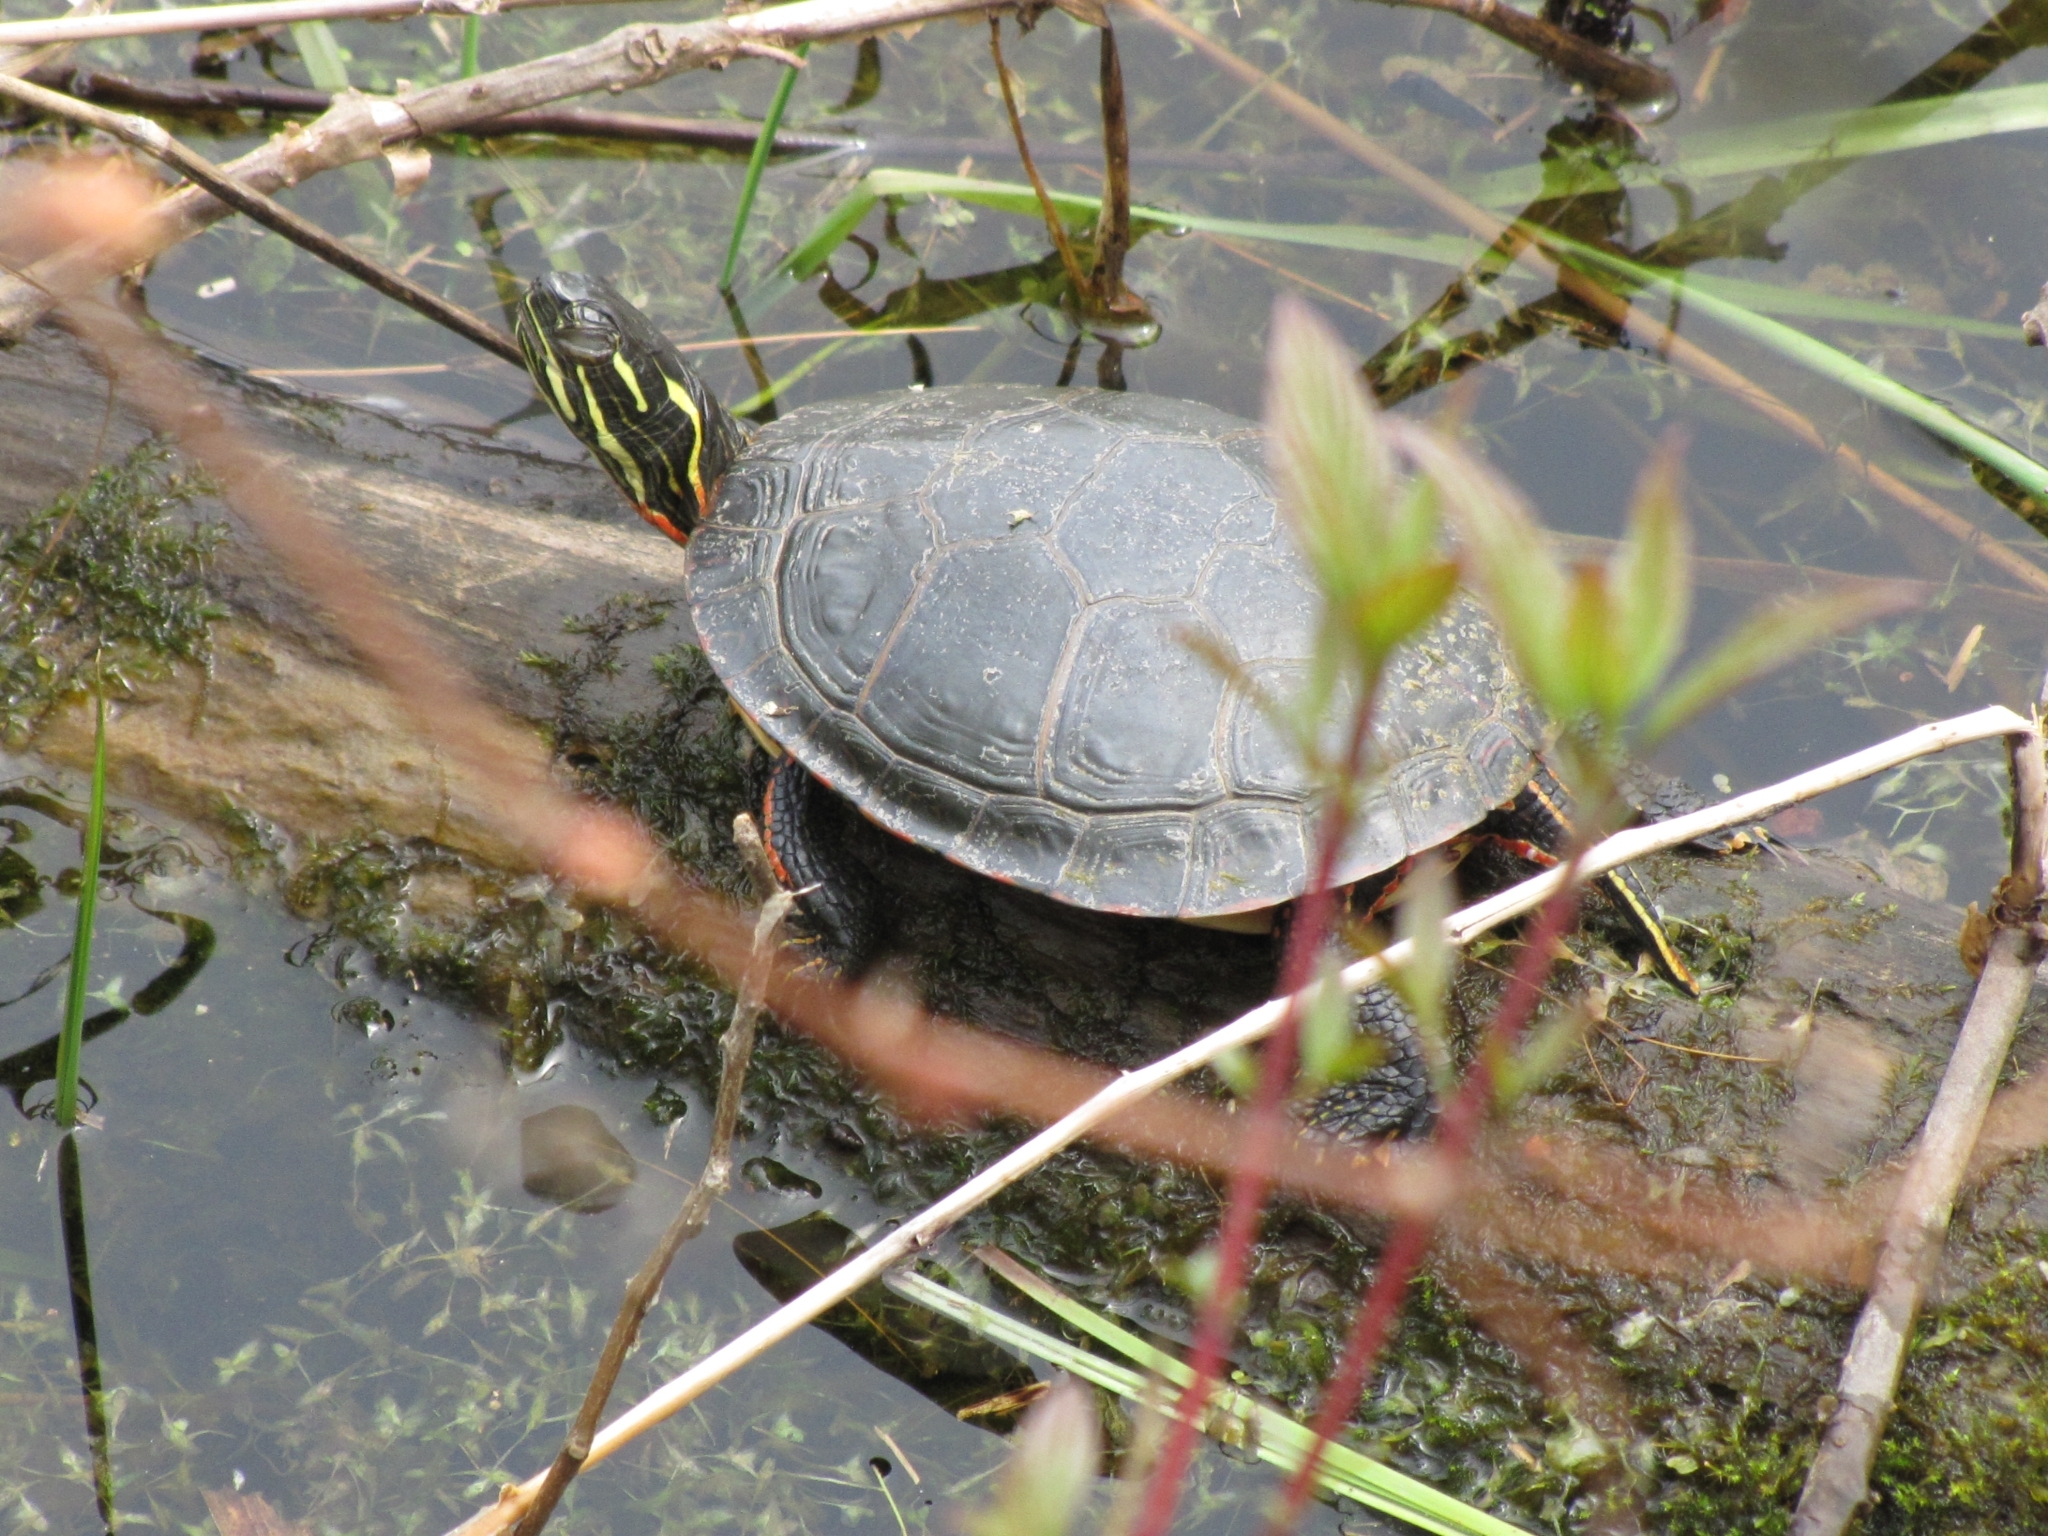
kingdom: Animalia
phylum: Chordata
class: Testudines
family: Emydidae
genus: Chrysemys
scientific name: Chrysemys picta
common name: Painted turtle
